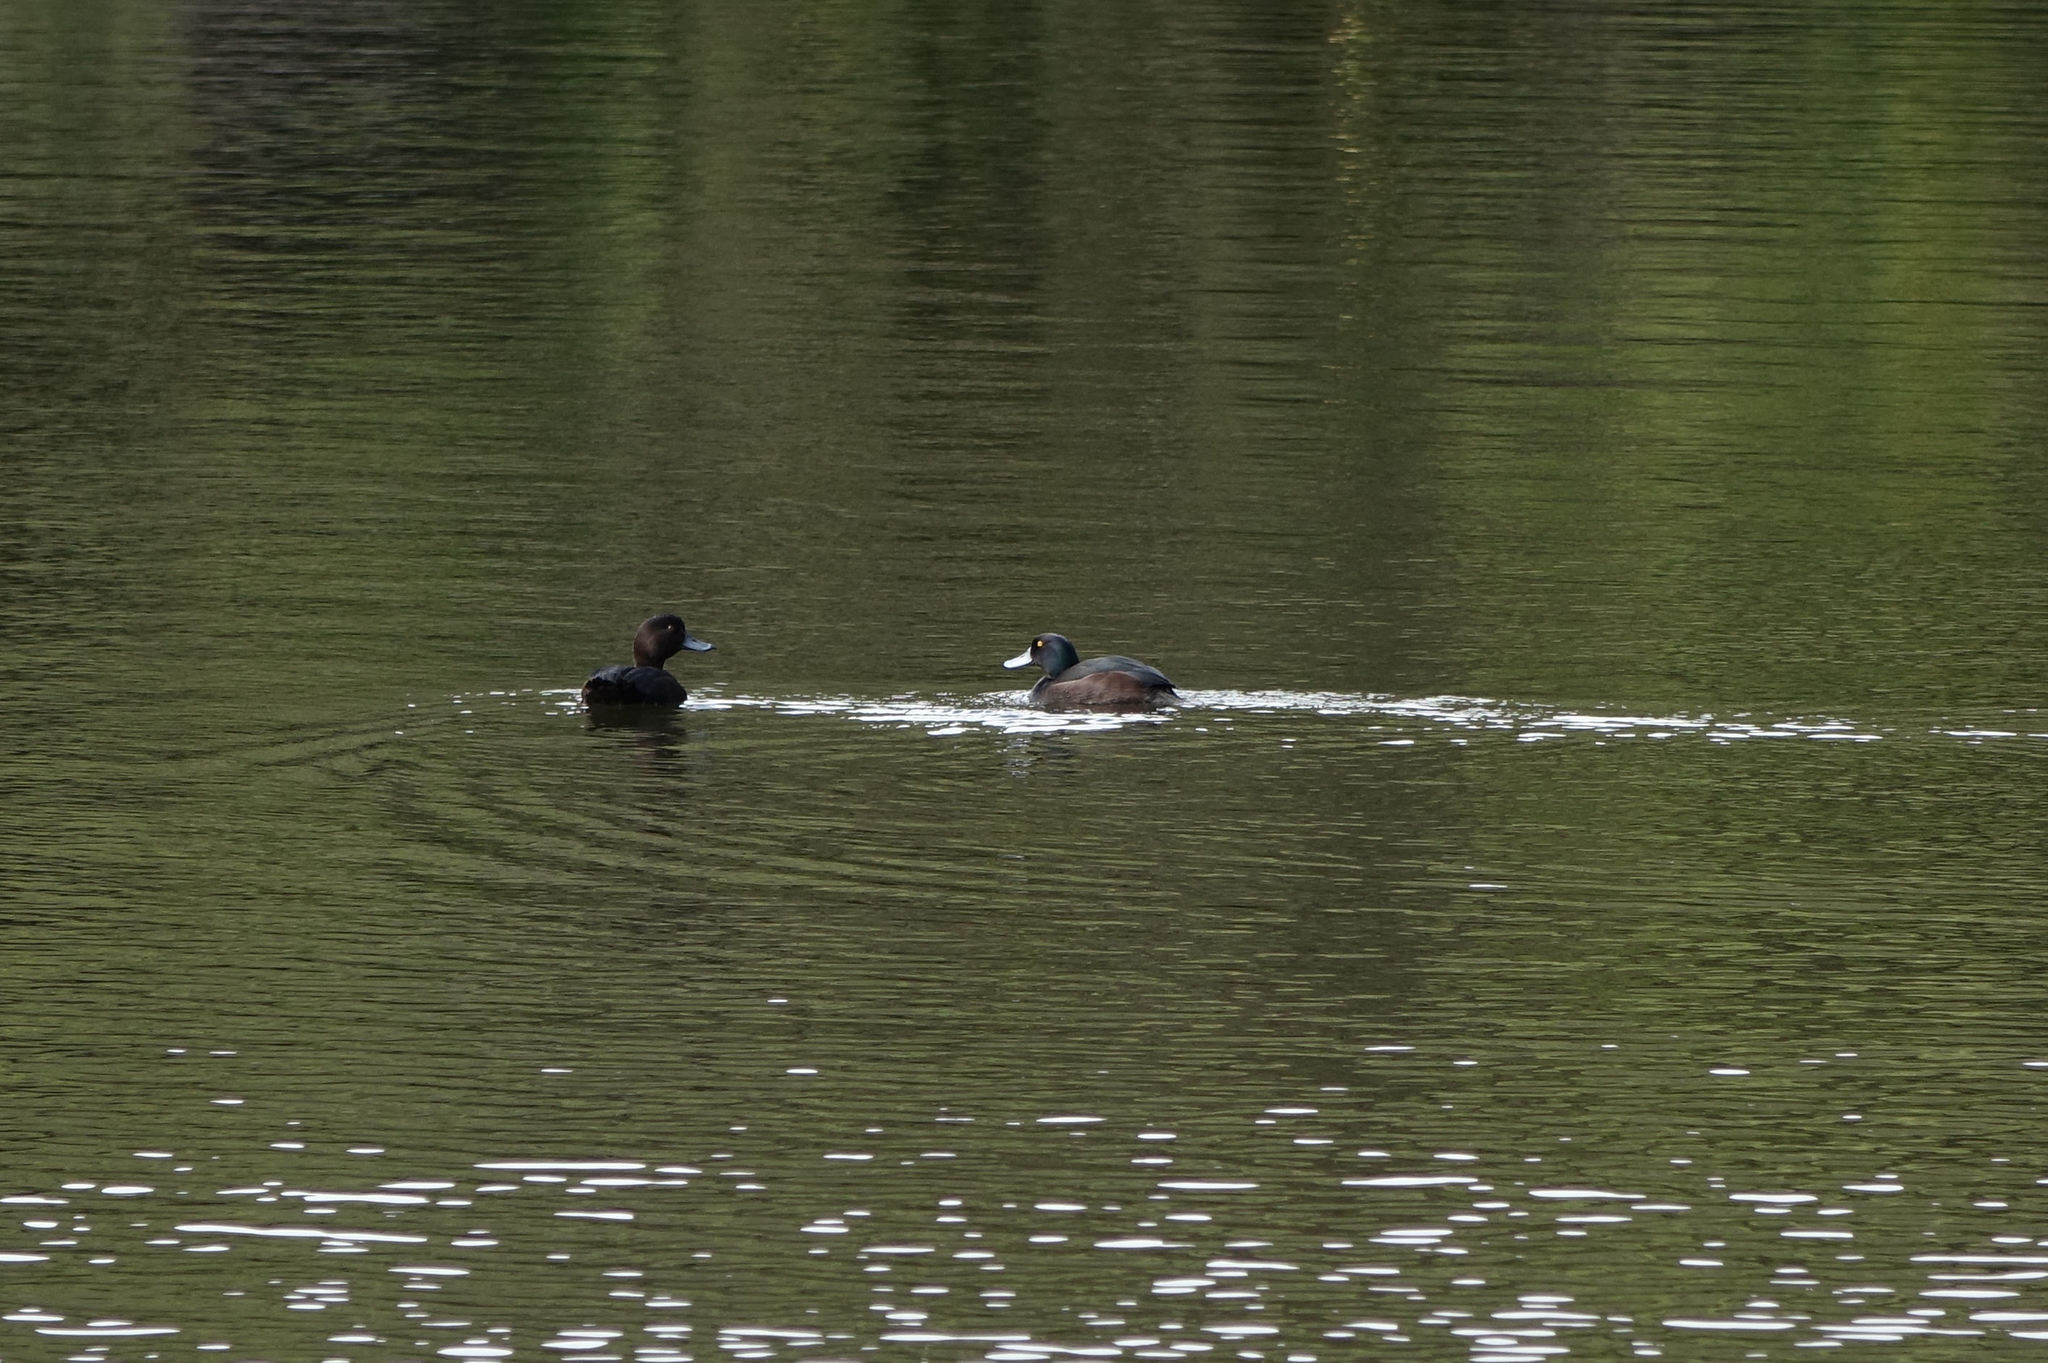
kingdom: Animalia
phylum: Chordata
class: Aves
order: Anseriformes
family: Anatidae
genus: Aythya
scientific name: Aythya novaeseelandiae
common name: New zealand scaup
